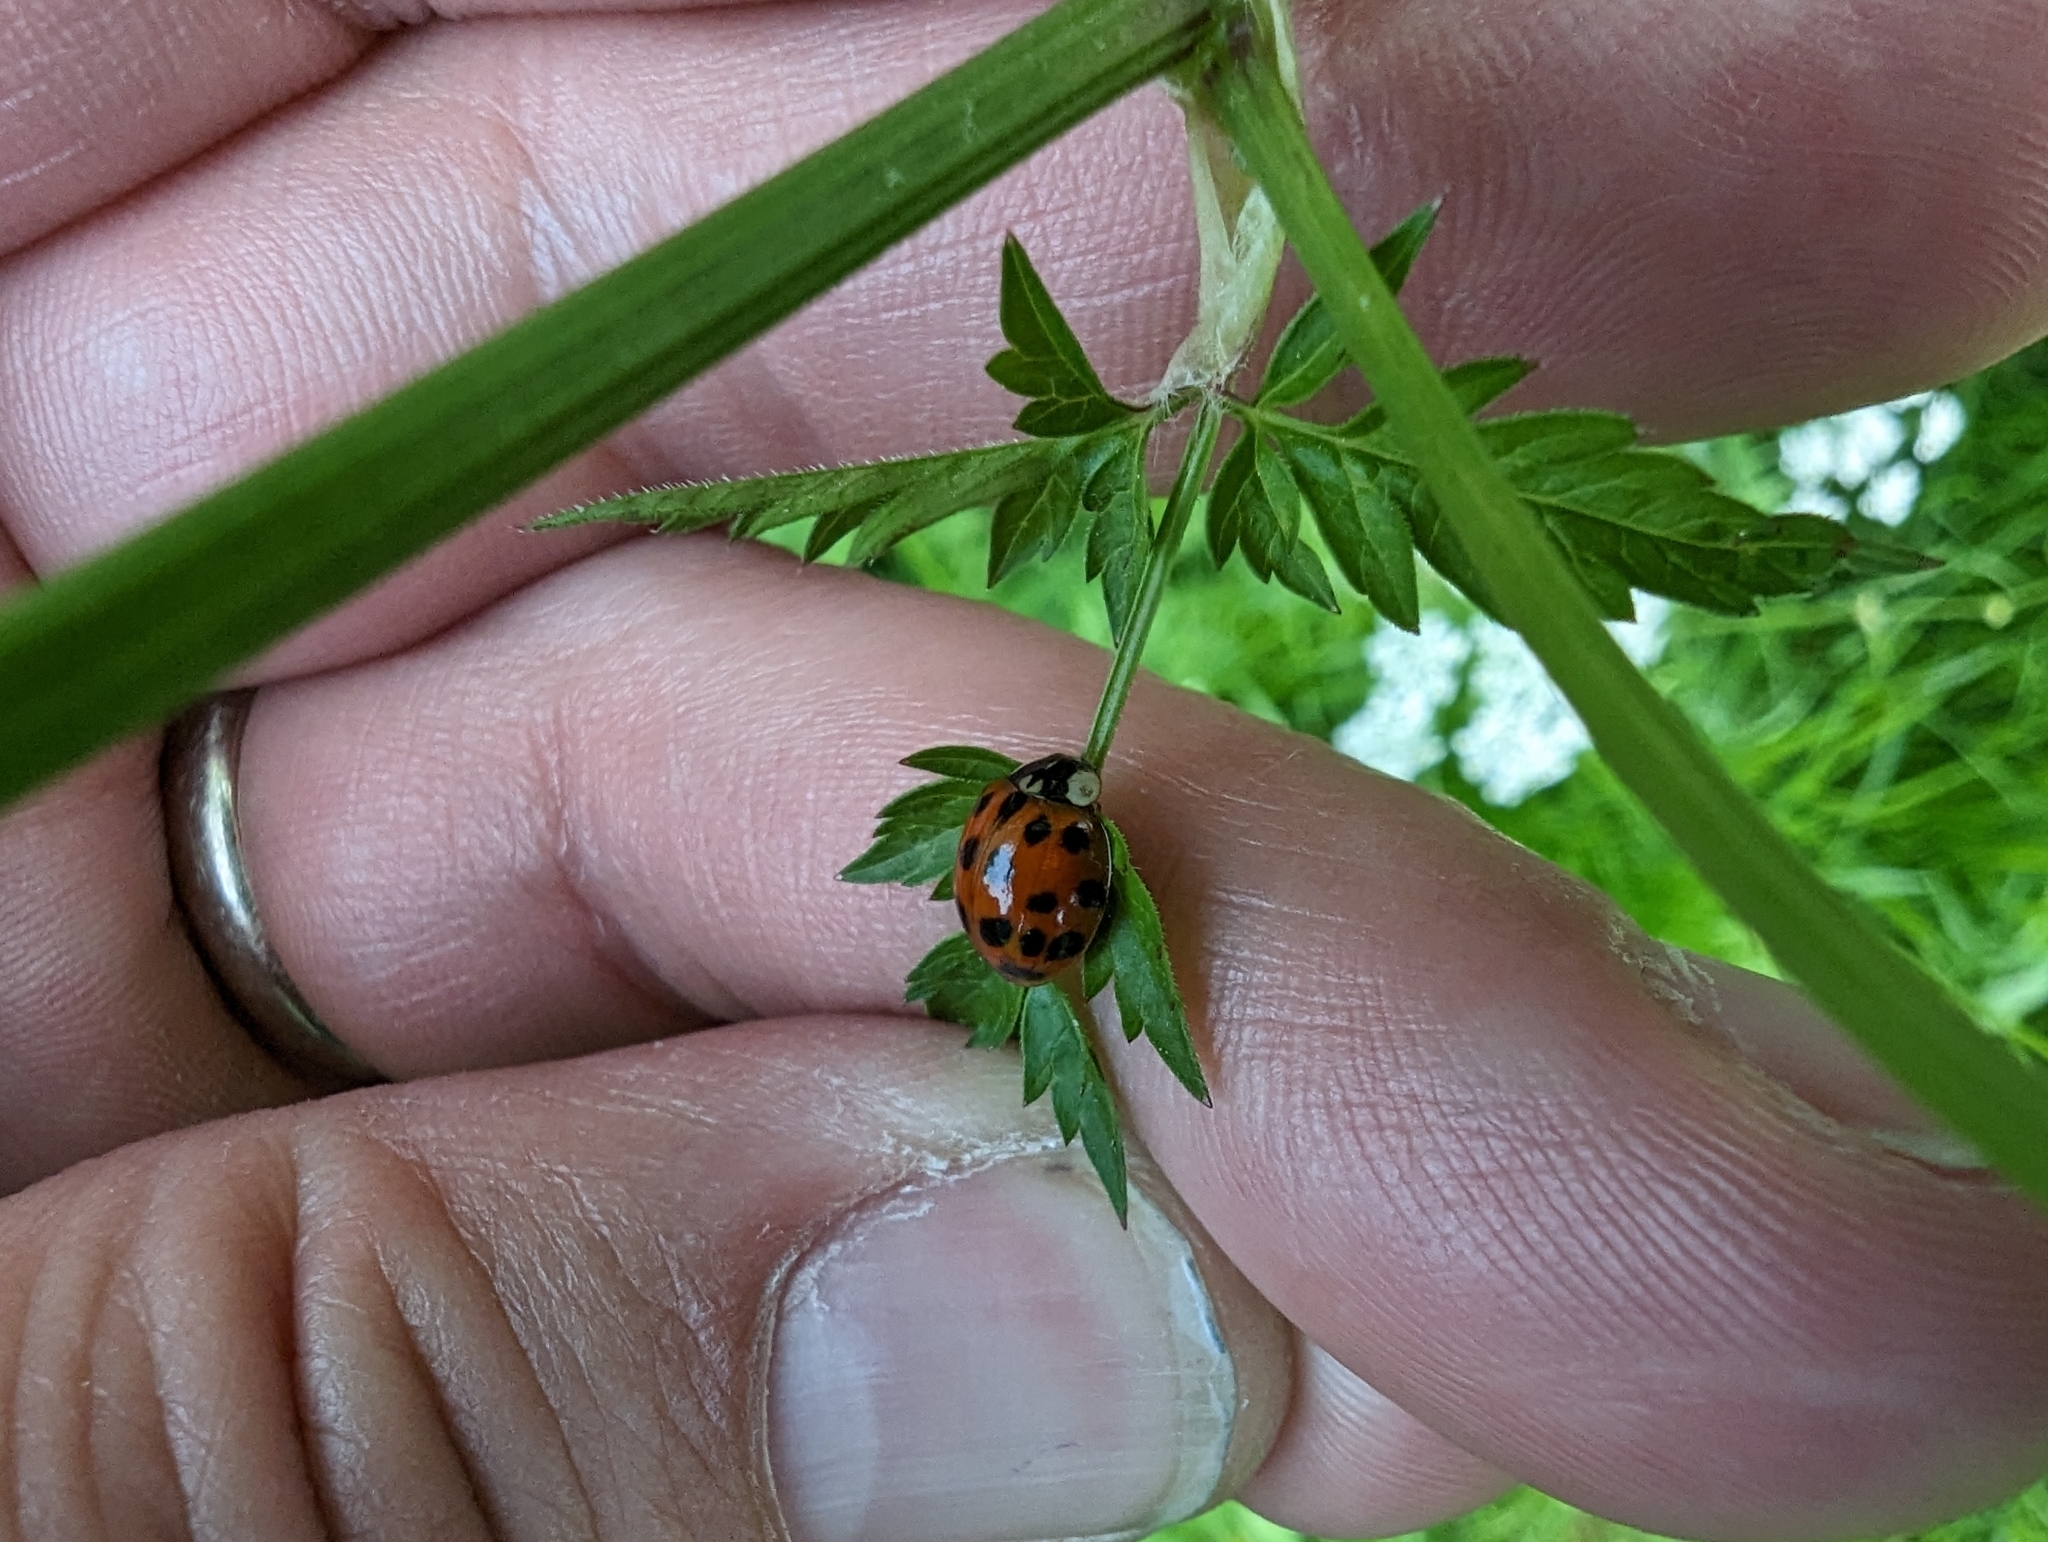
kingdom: Animalia
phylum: Arthropoda
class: Insecta
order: Coleoptera
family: Coccinellidae
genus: Harmonia
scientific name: Harmonia axyridis
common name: Harlequin ladybird
